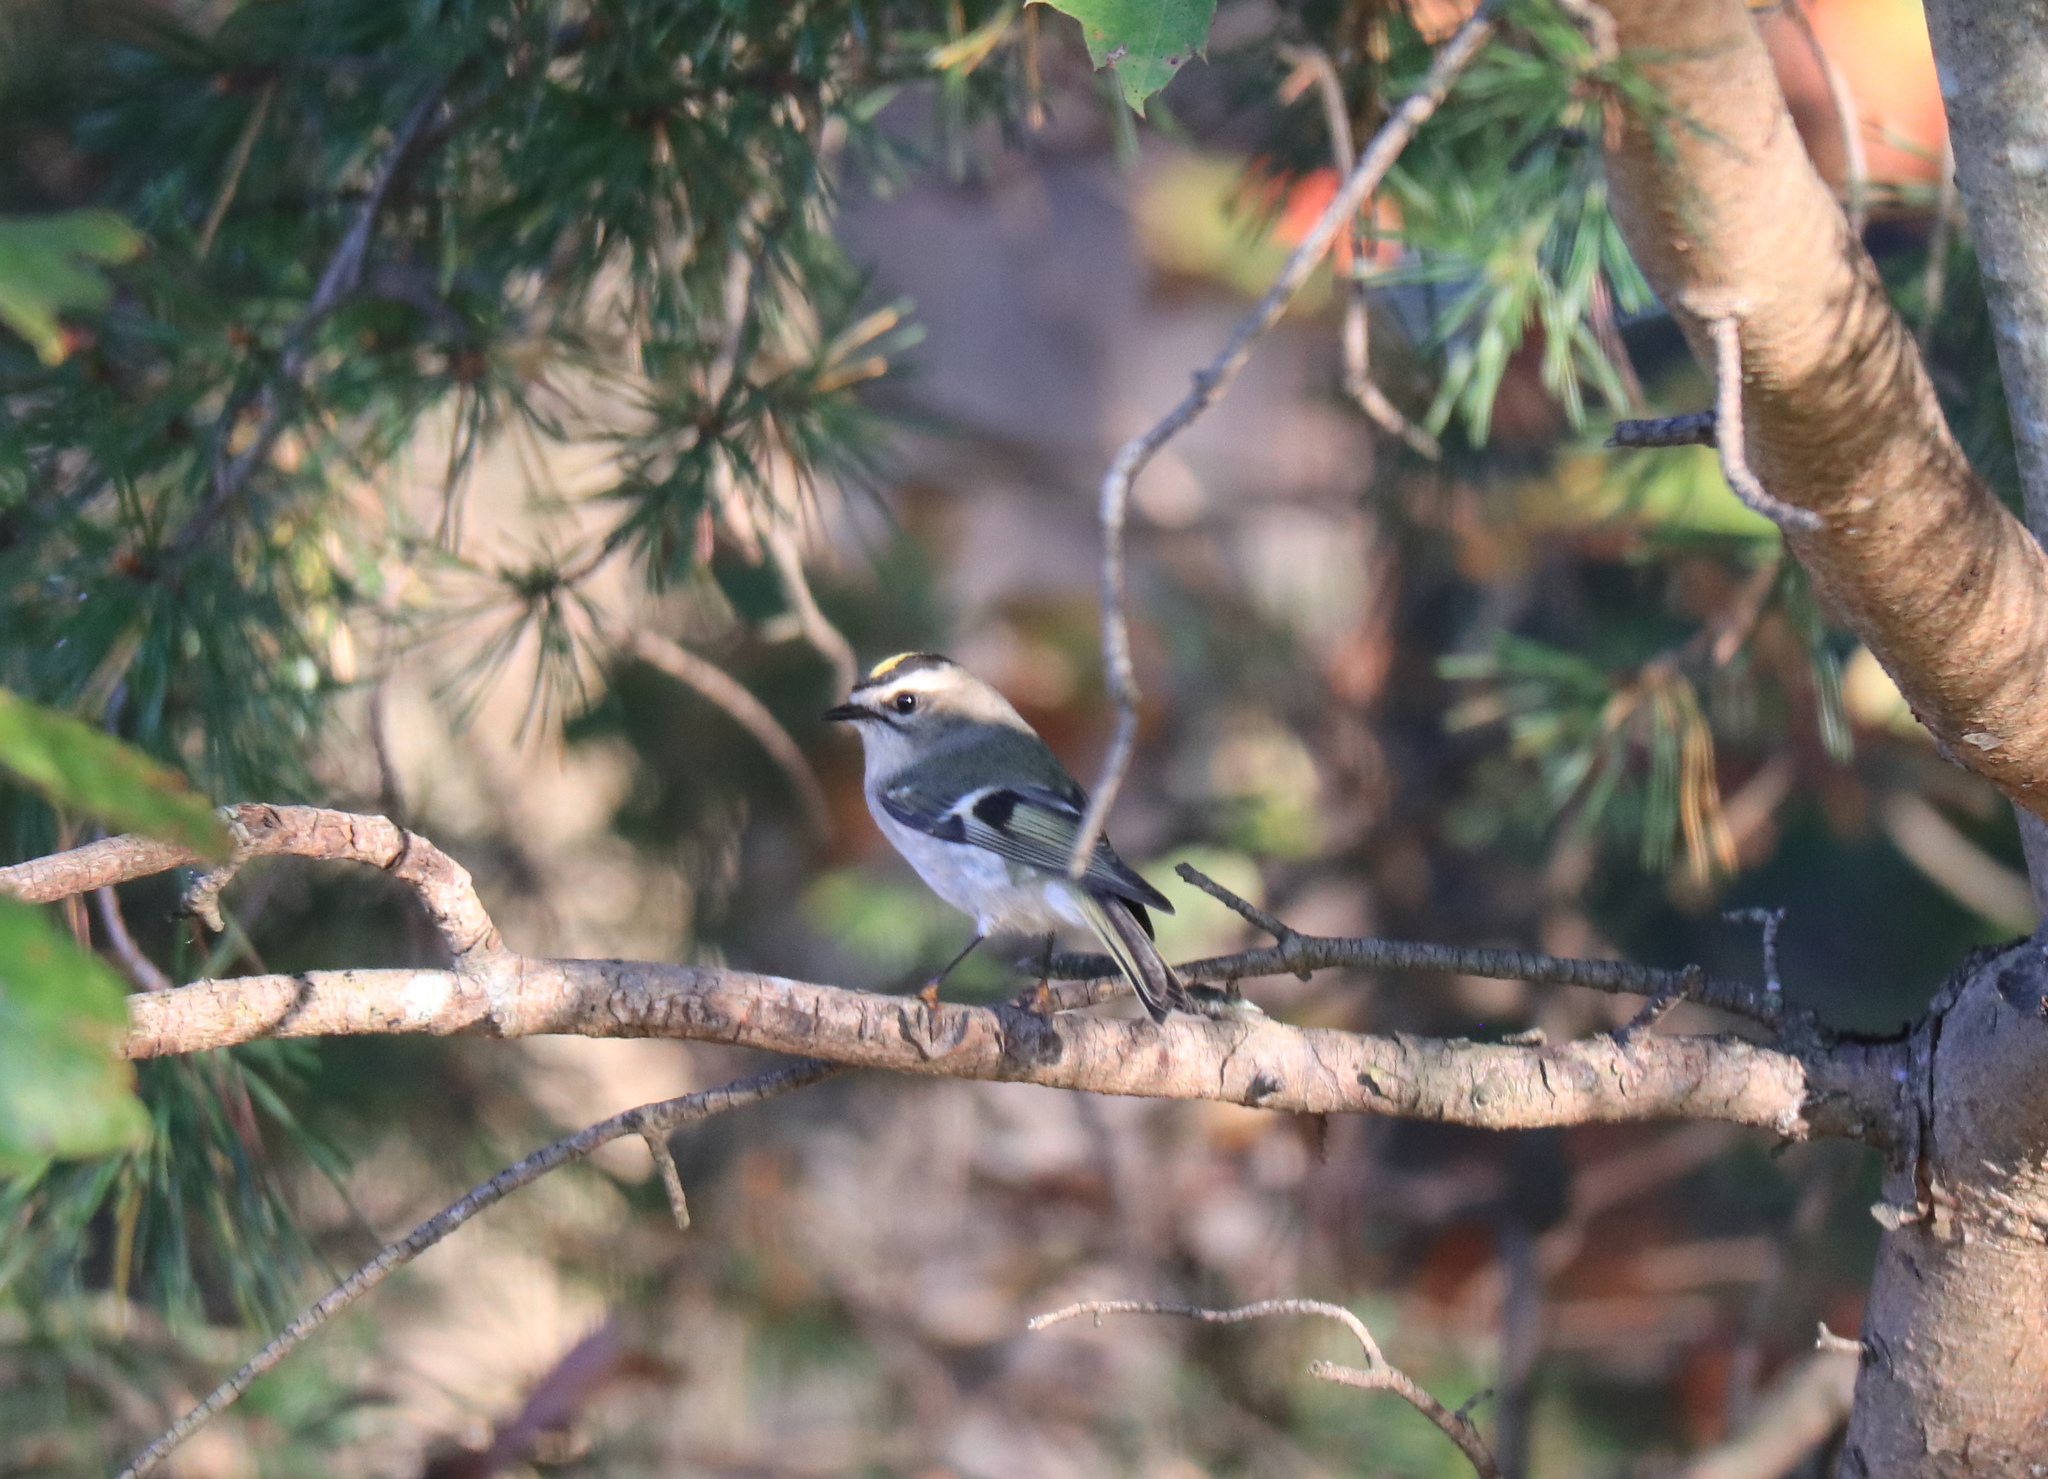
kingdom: Animalia
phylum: Chordata
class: Aves
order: Passeriformes
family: Regulidae
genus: Regulus
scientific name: Regulus satrapa
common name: Golden-crowned kinglet
